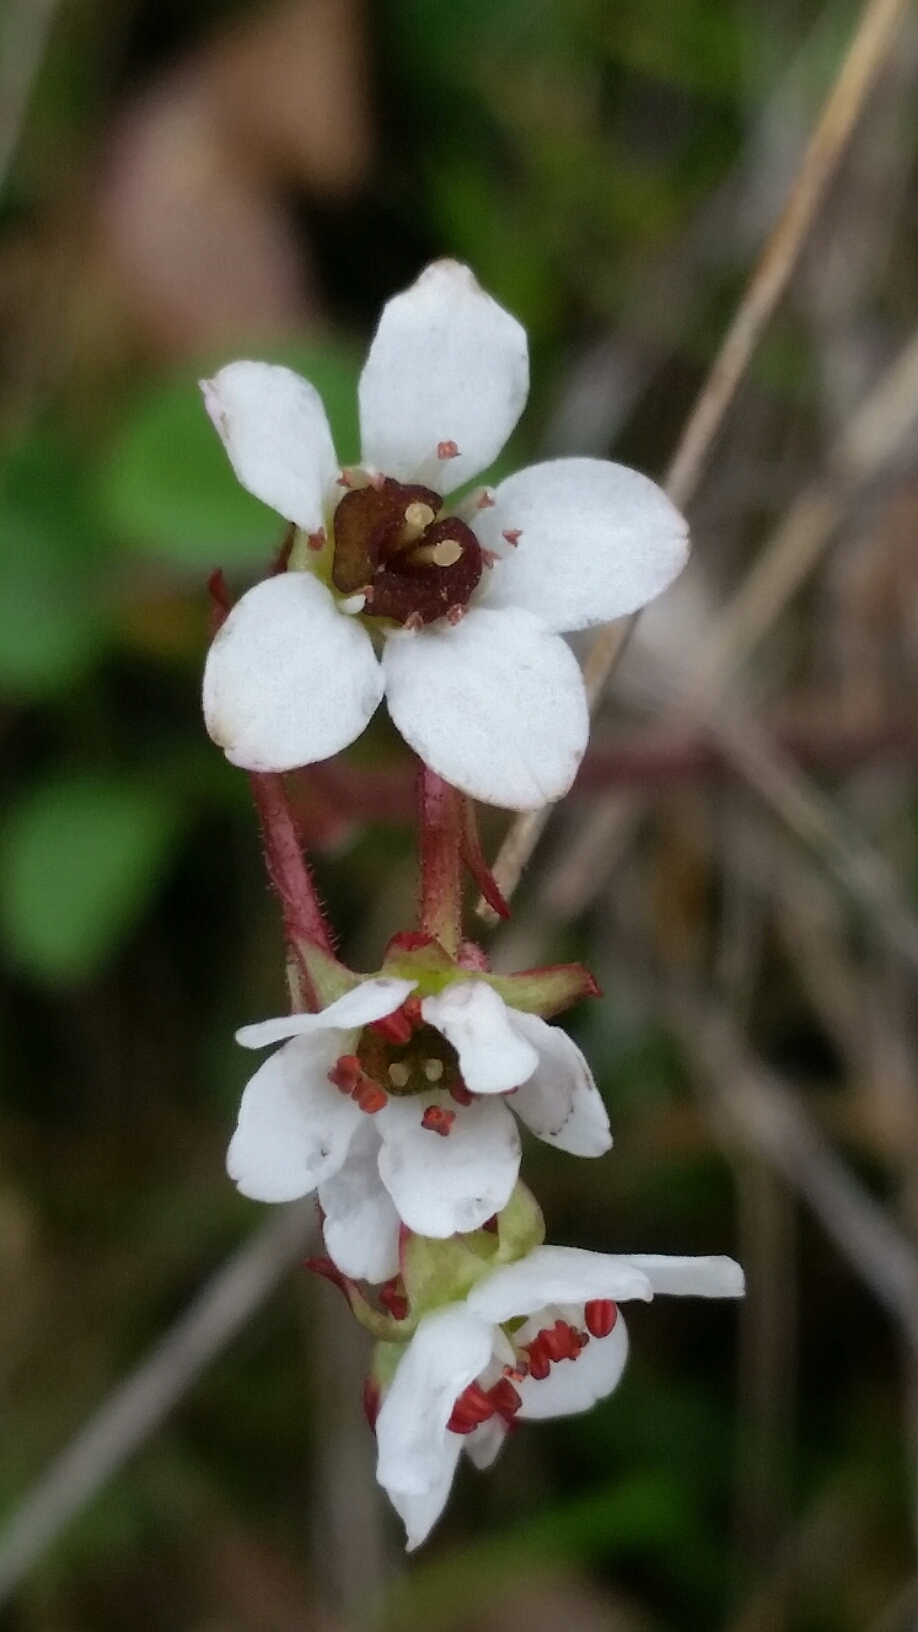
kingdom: Plantae
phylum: Tracheophyta
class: Magnoliopsida
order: Saxifragales
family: Saxifragaceae
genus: Micranthes
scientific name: Micranthes californica
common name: California saxifrage
